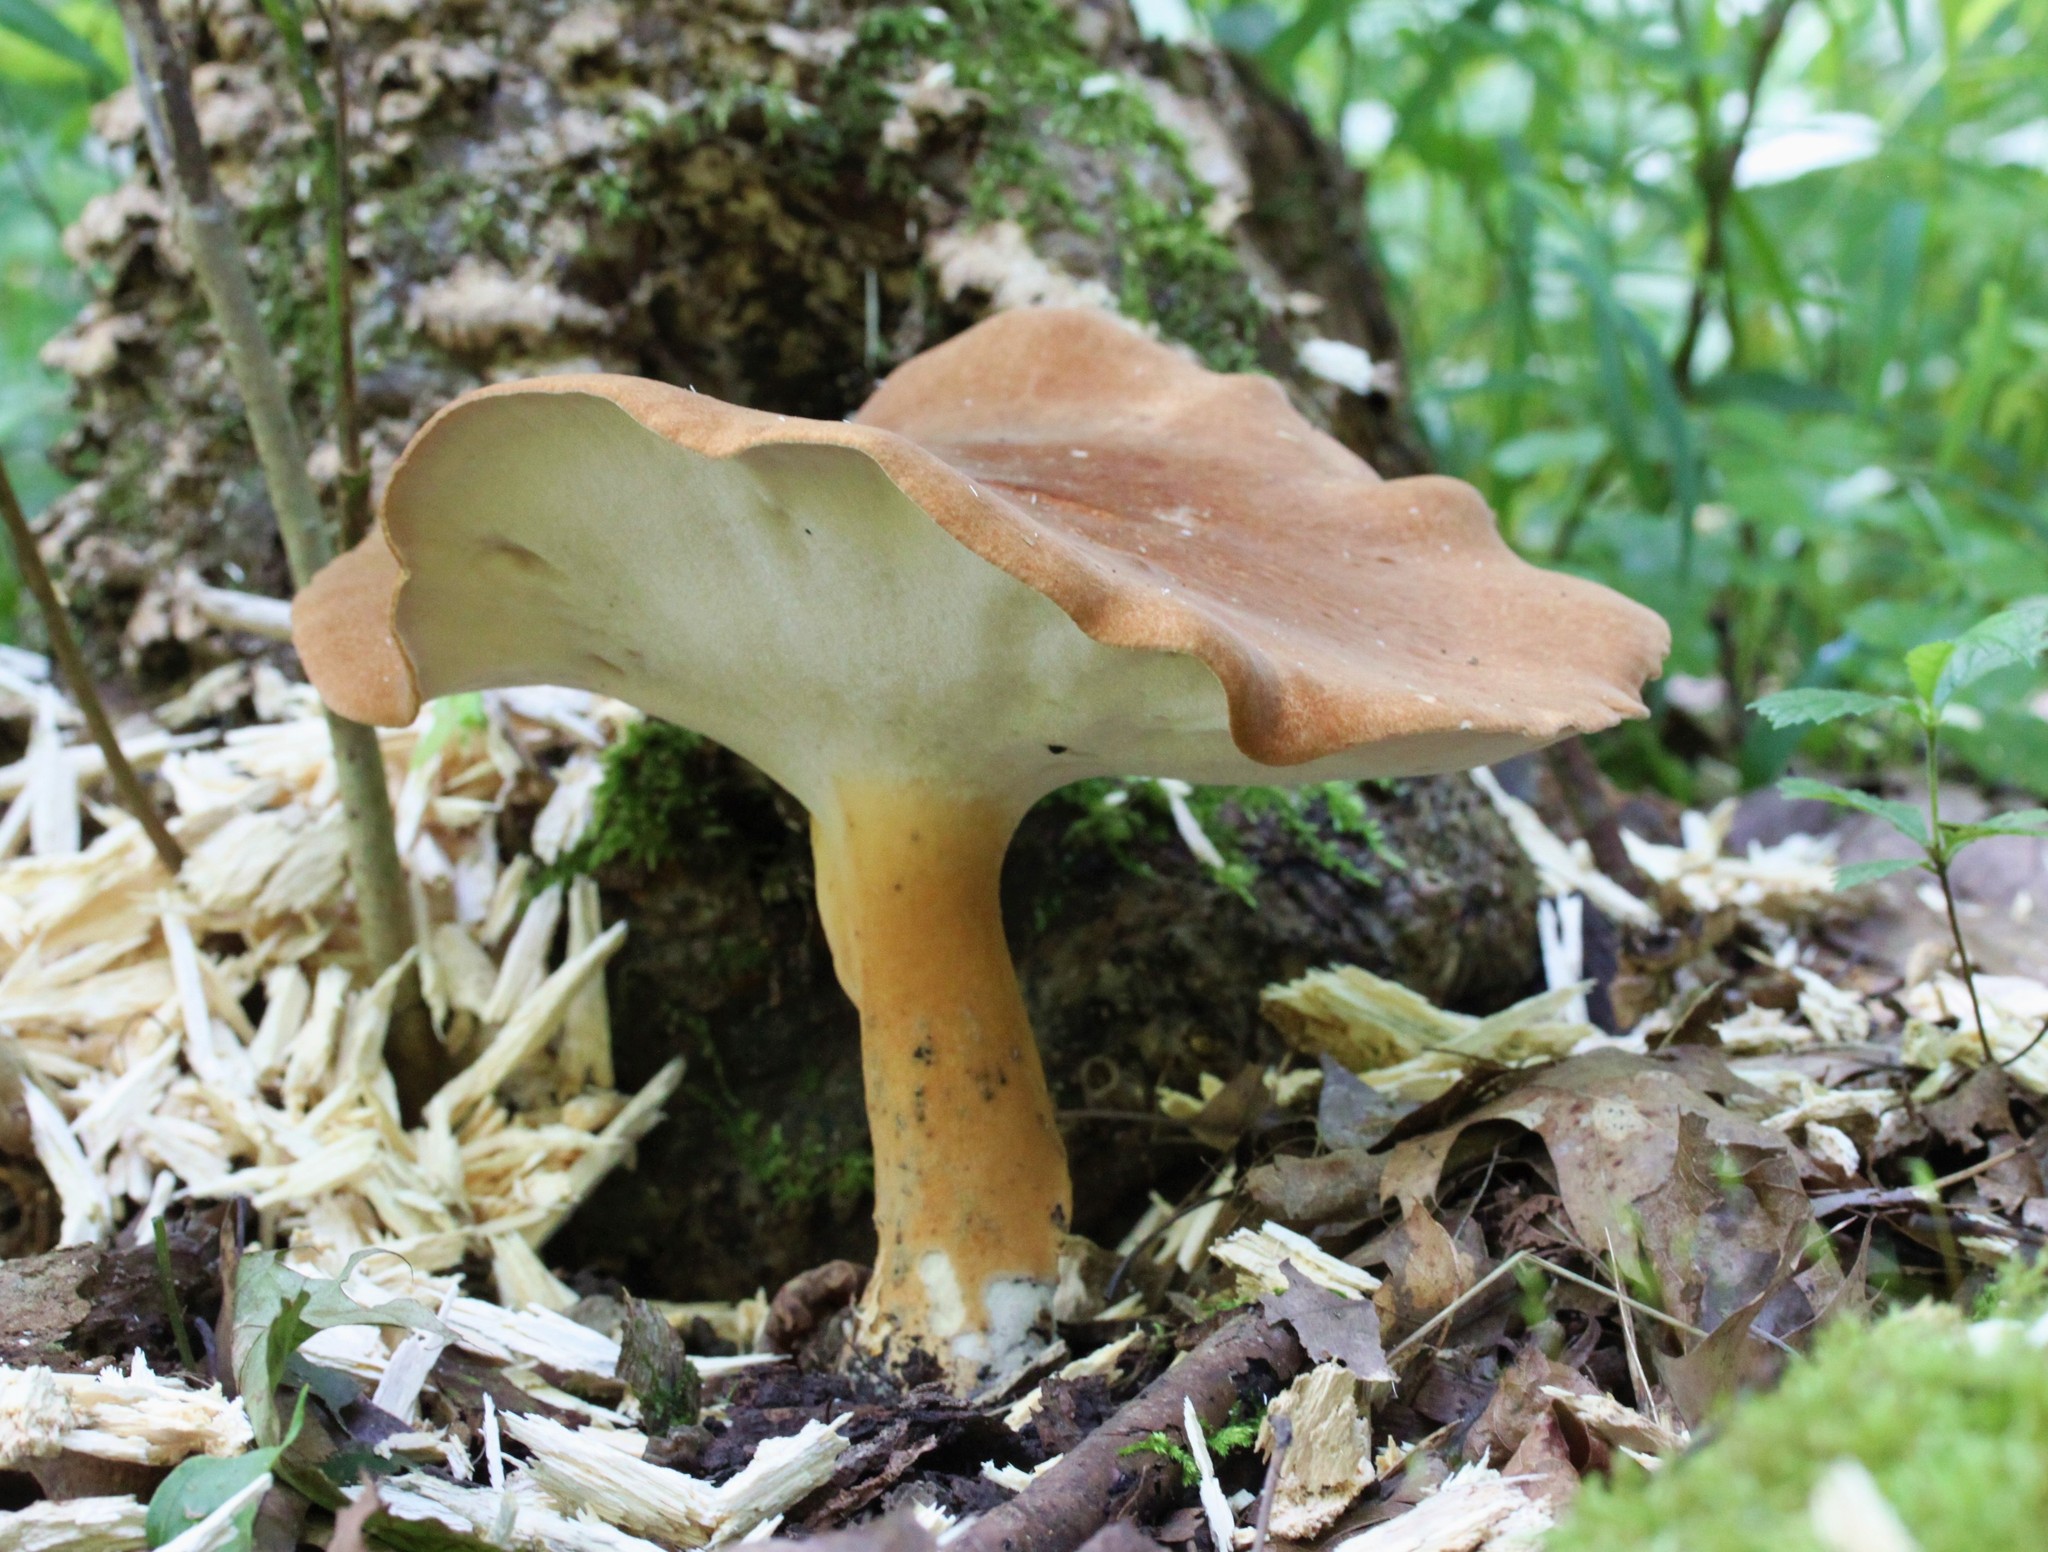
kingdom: Fungi
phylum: Basidiomycota
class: Agaricomycetes
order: Polyporales
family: Polyporaceae
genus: Polyporus
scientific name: Polyporus radicatus
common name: Rooting polypore
